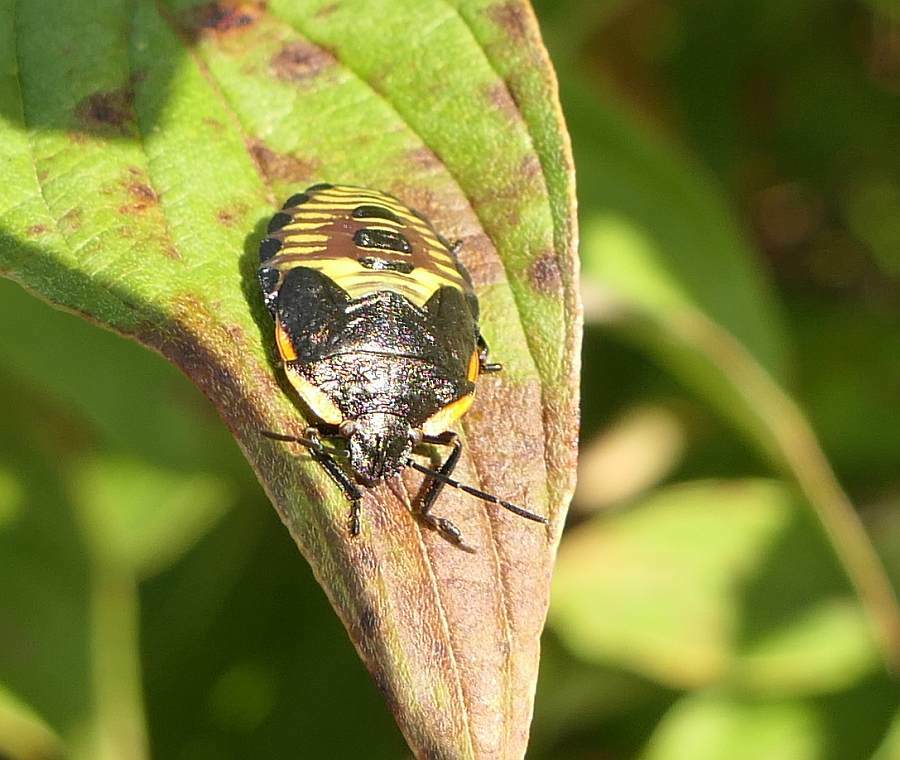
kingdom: Animalia
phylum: Arthropoda
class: Insecta
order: Hemiptera
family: Pentatomidae
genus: Chinavia
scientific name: Chinavia hilaris
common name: Green stink bug
